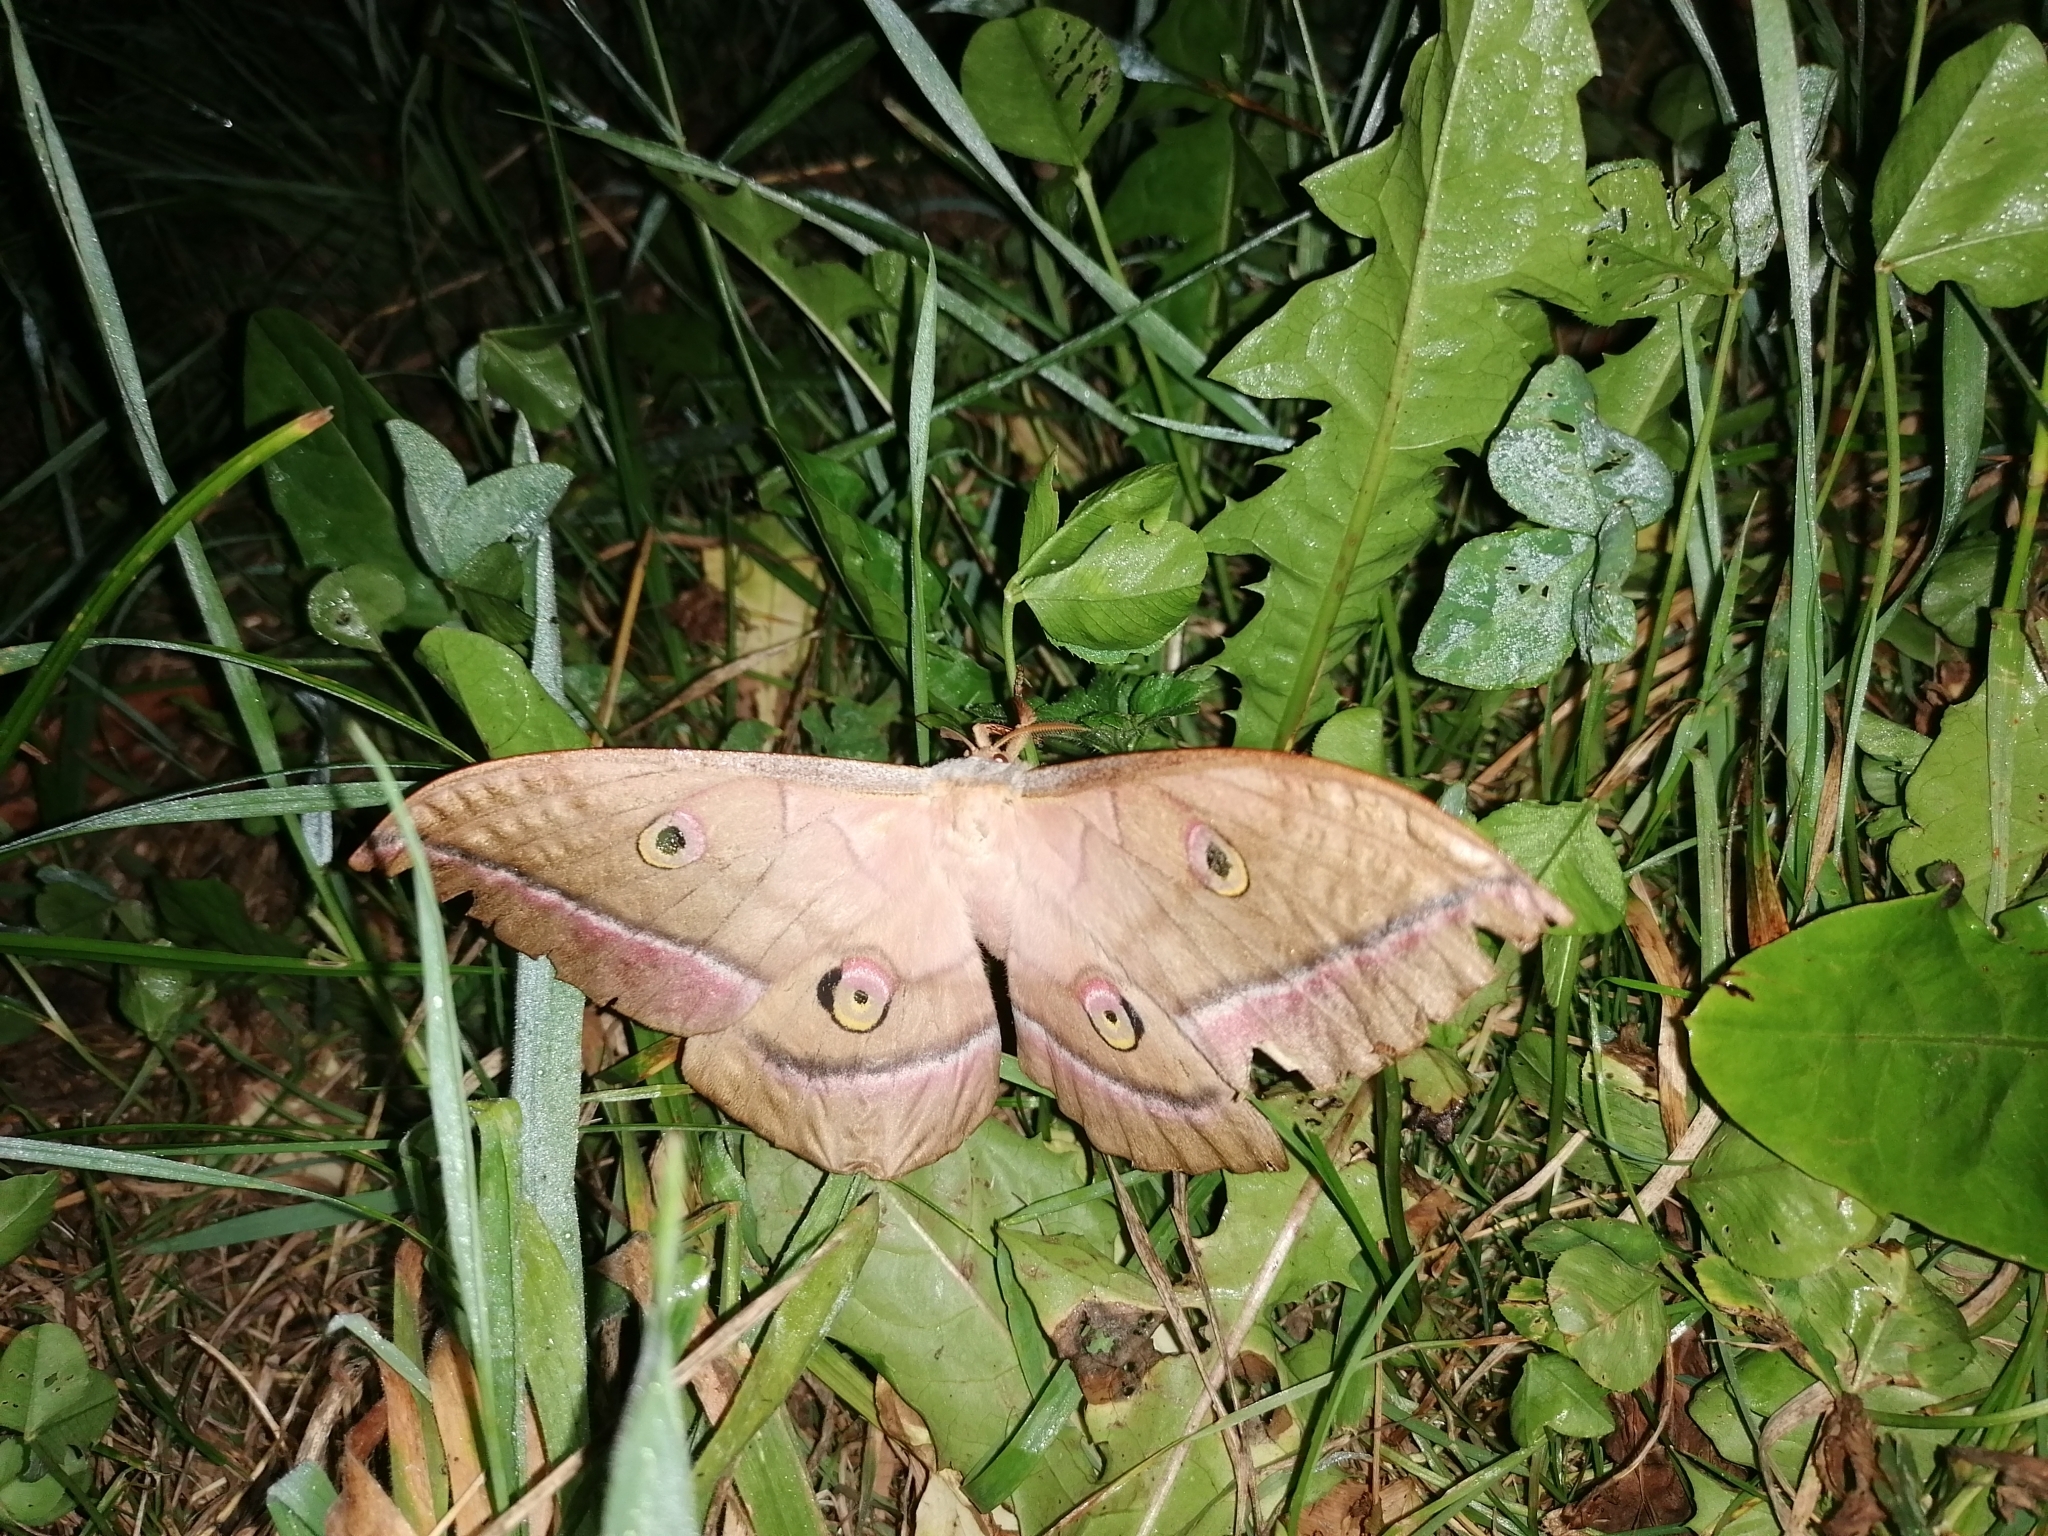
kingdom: Animalia
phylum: Arthropoda
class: Insecta
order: Lepidoptera
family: Saturniidae
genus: Antheraea
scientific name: Antheraea yamamai
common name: Japanese oak silk moth
